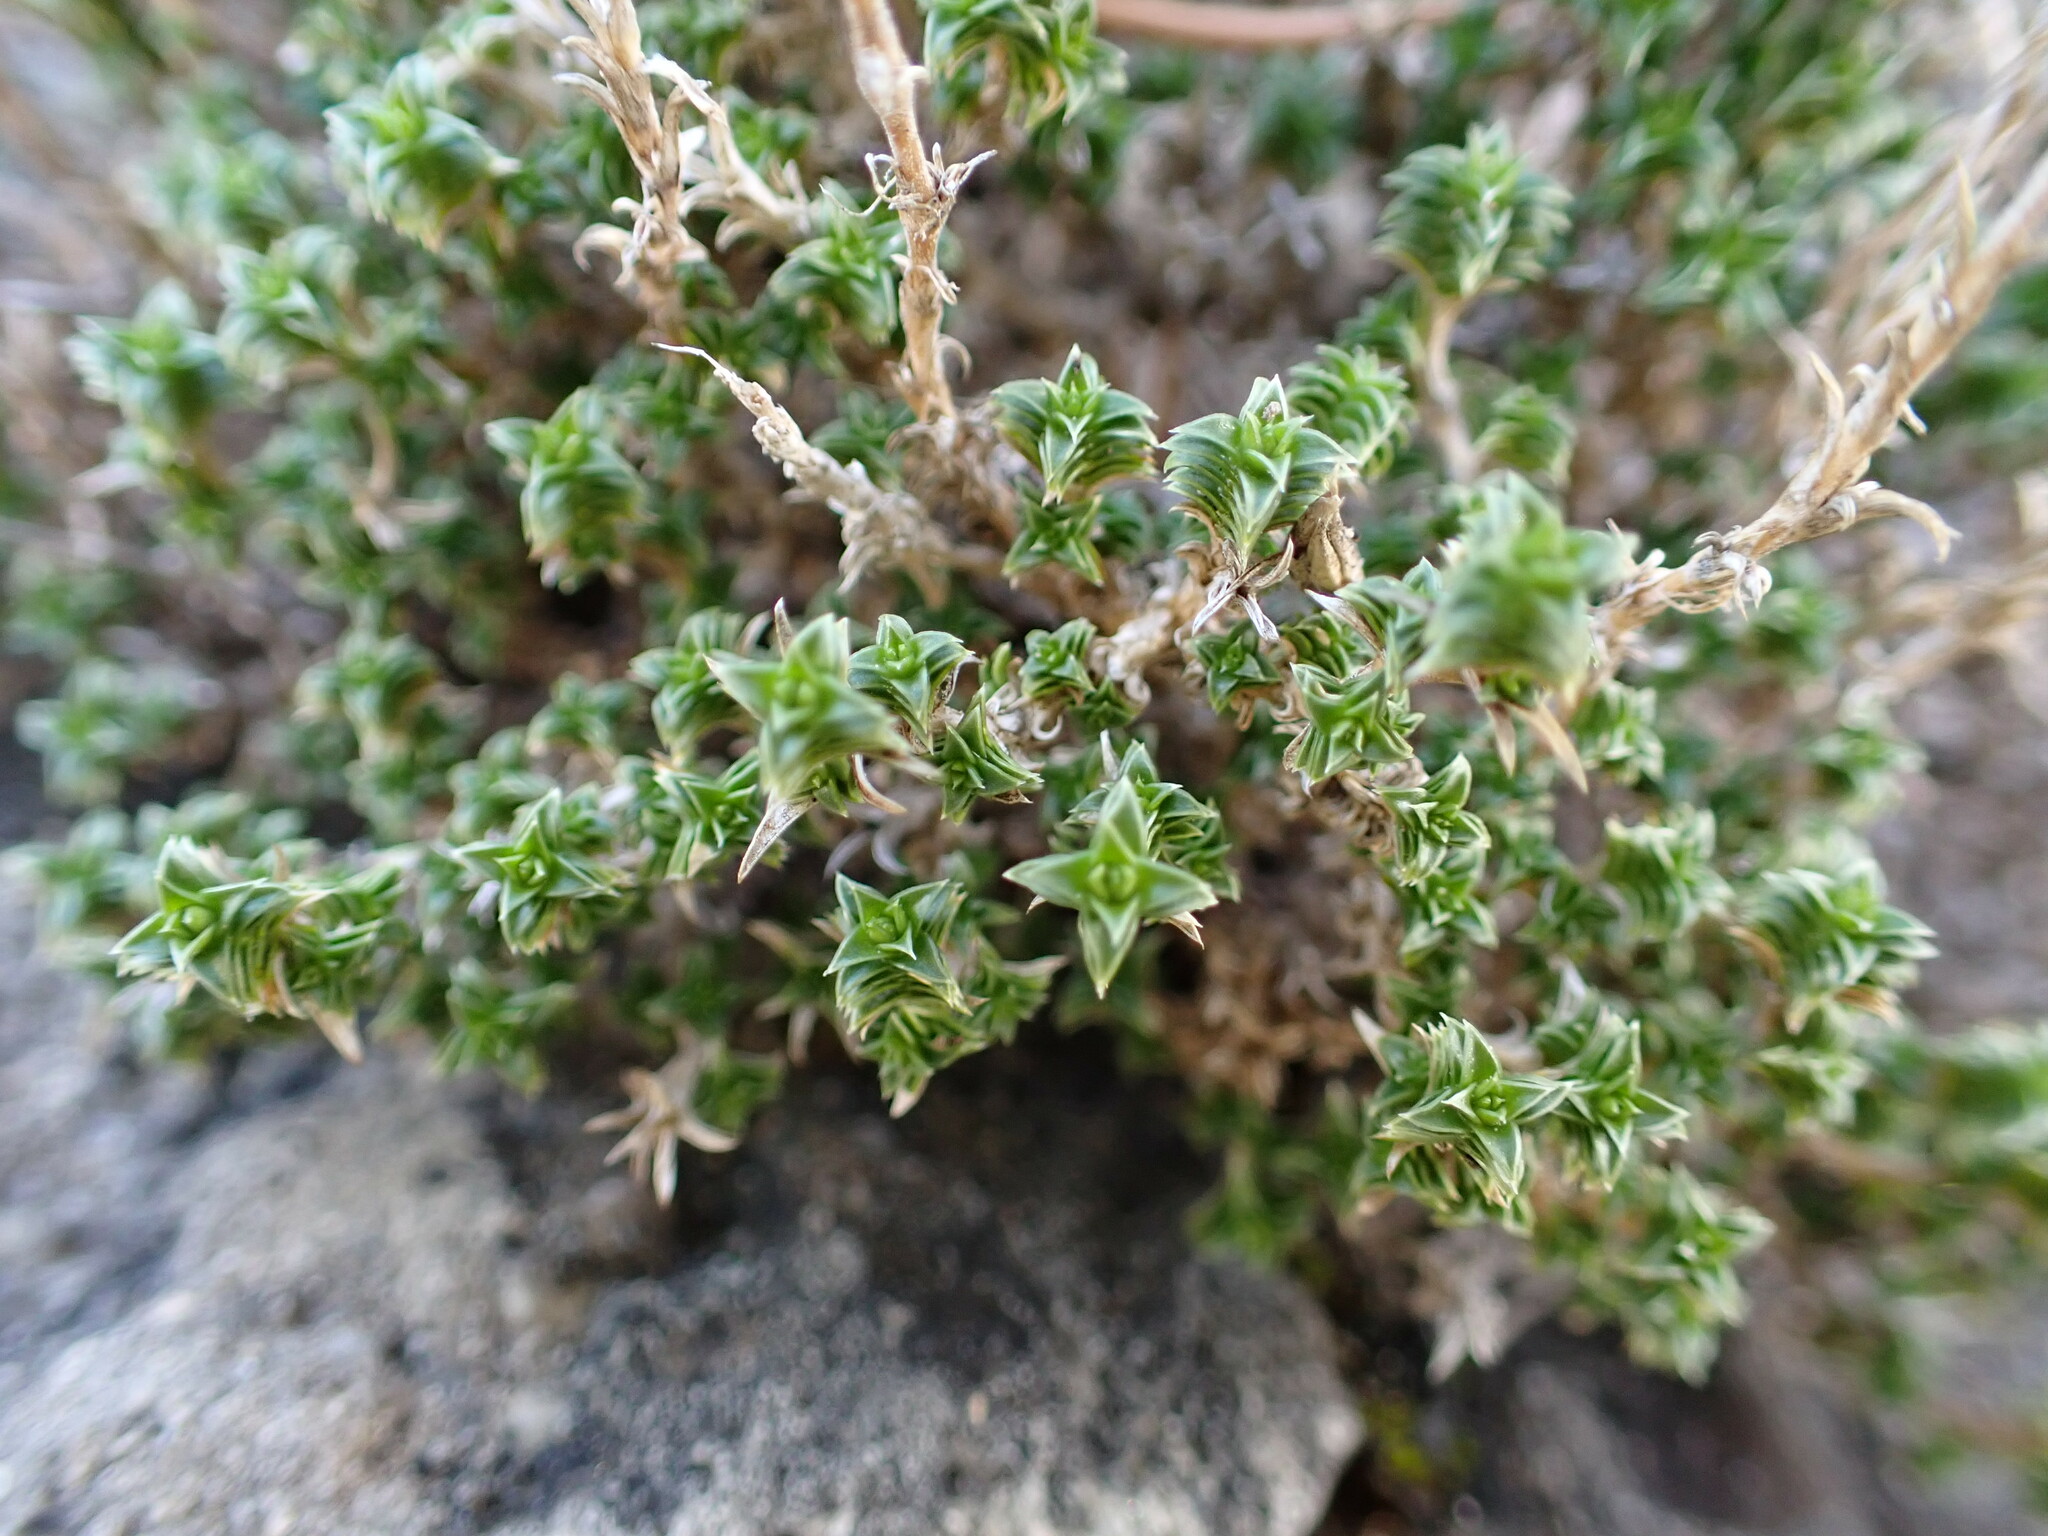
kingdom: Plantae
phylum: Tracheophyta
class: Magnoliopsida
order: Caryophyllales
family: Caryophyllaceae
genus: Arenaria
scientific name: Arenaria aggregata
